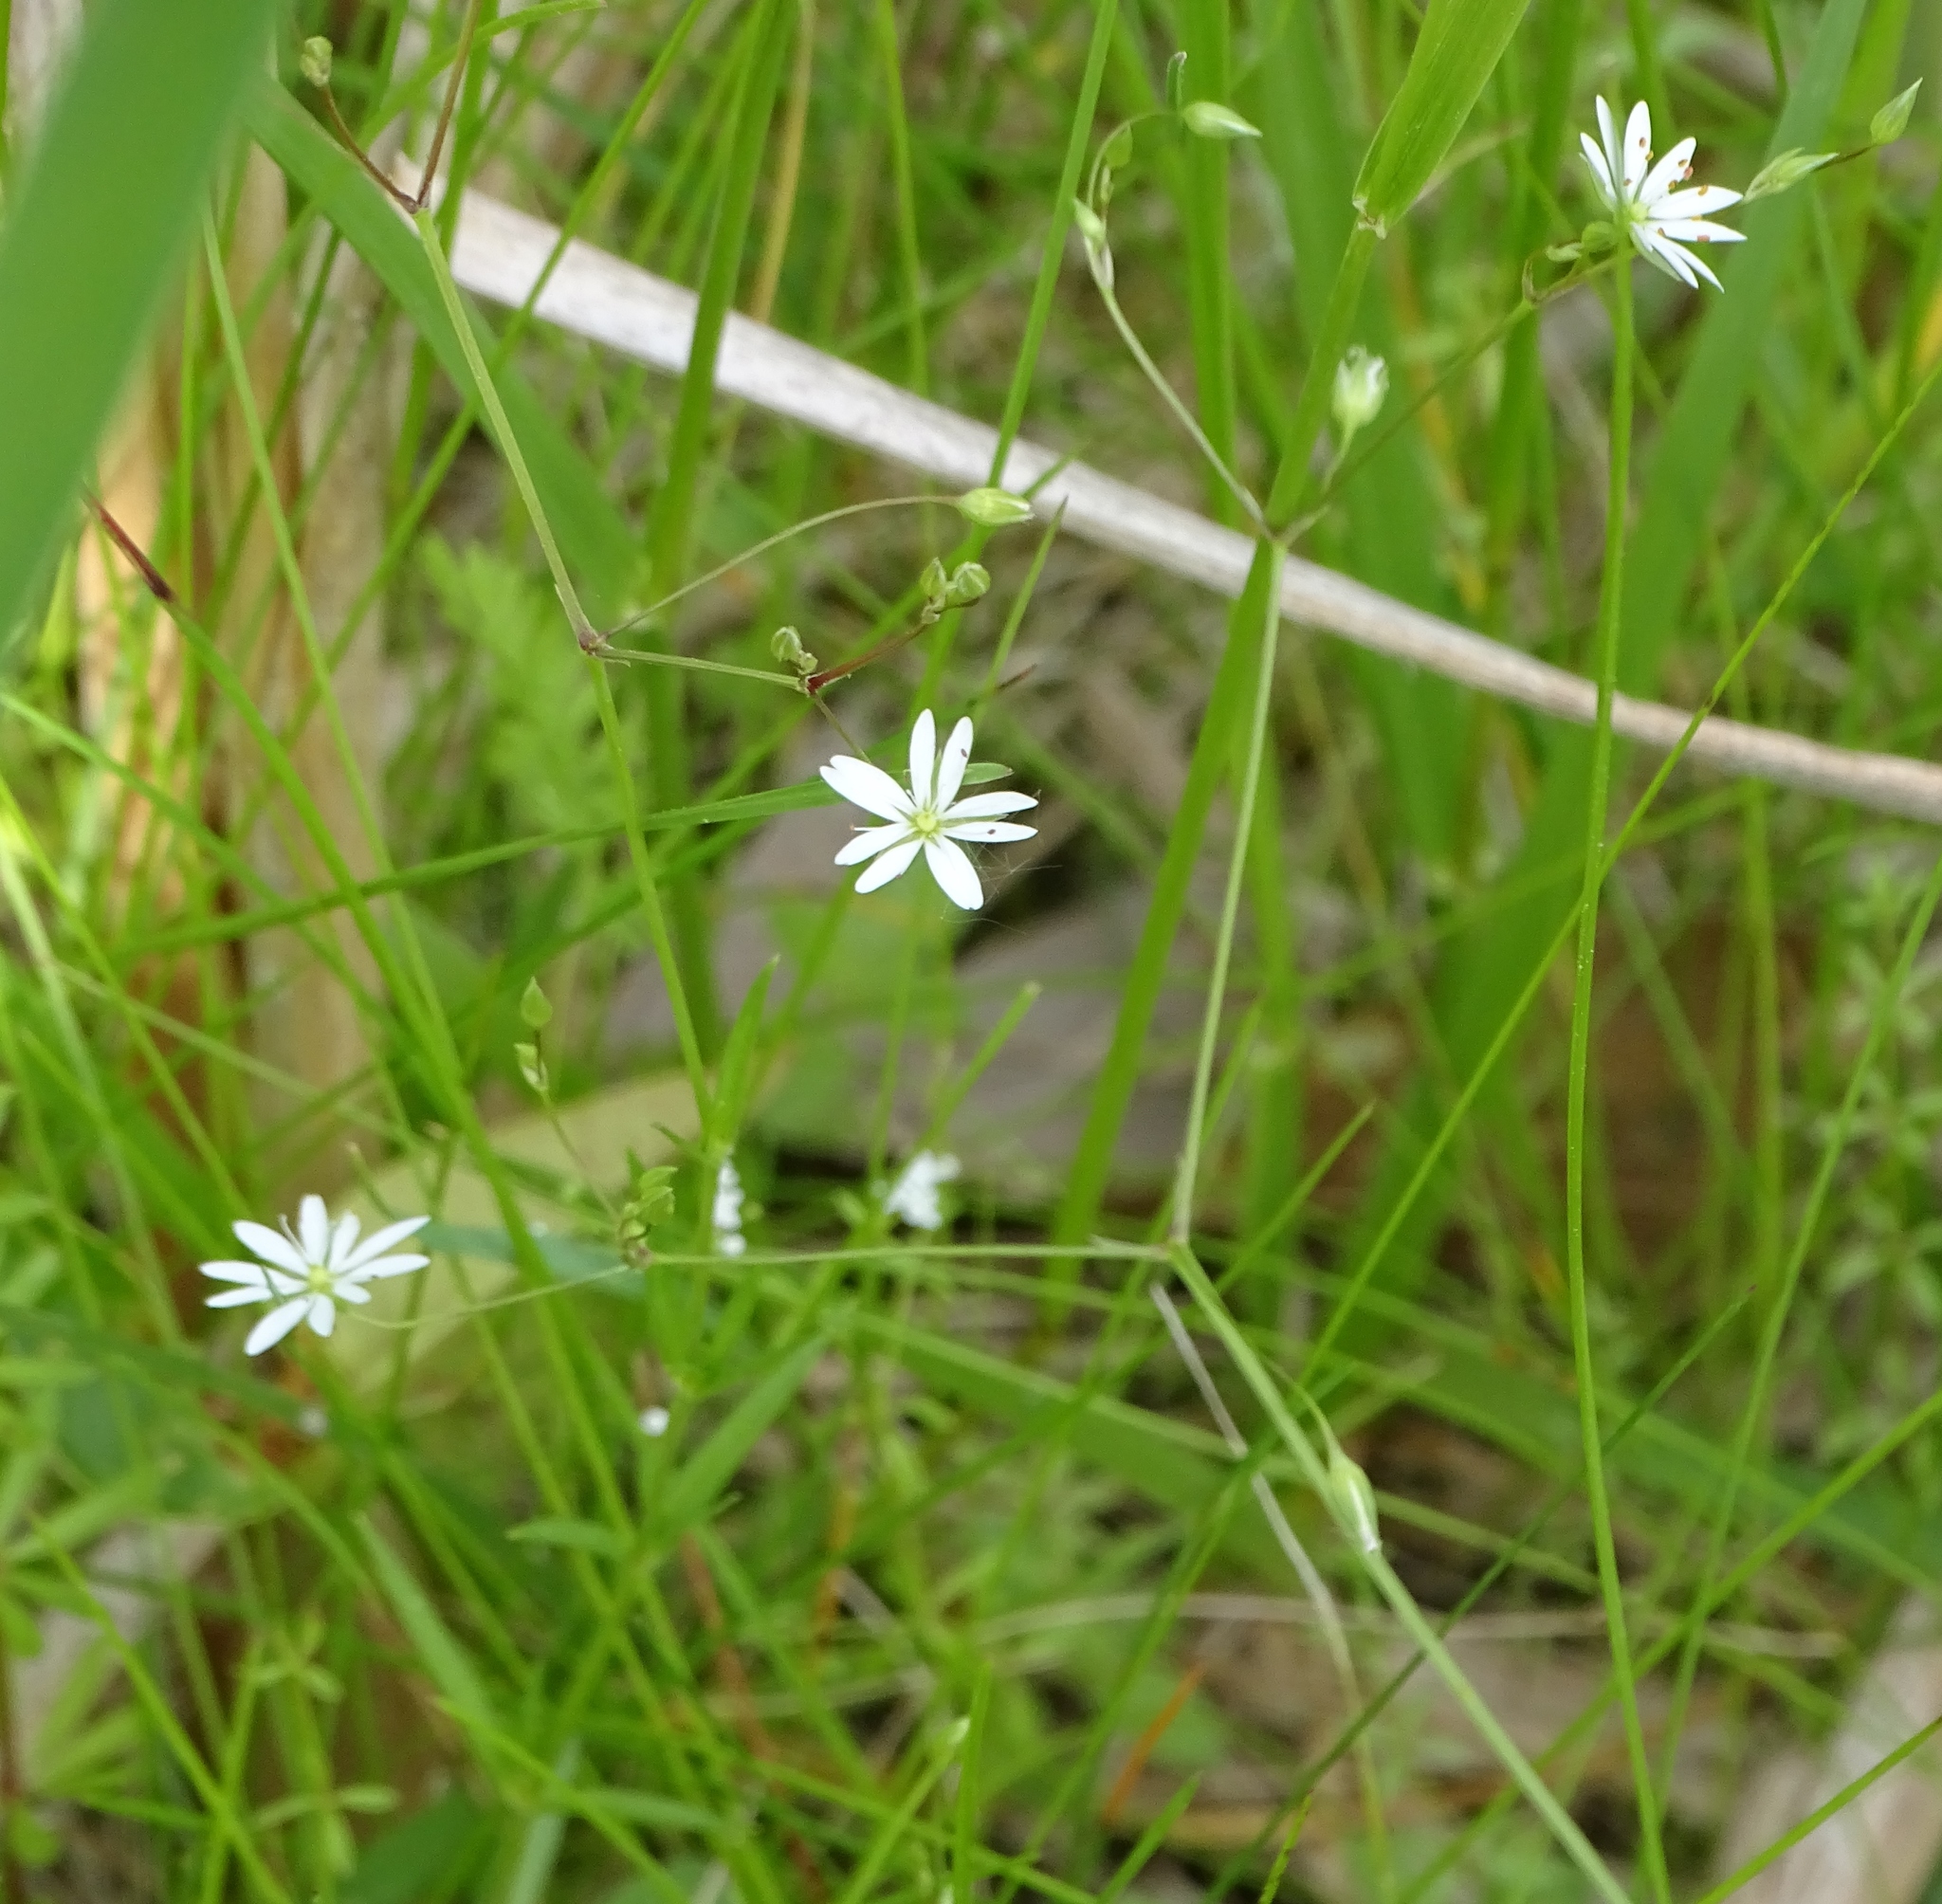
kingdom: Plantae
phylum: Tracheophyta
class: Magnoliopsida
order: Caryophyllales
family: Caryophyllaceae
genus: Stellaria
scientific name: Stellaria graminea
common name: Grass-like starwort
